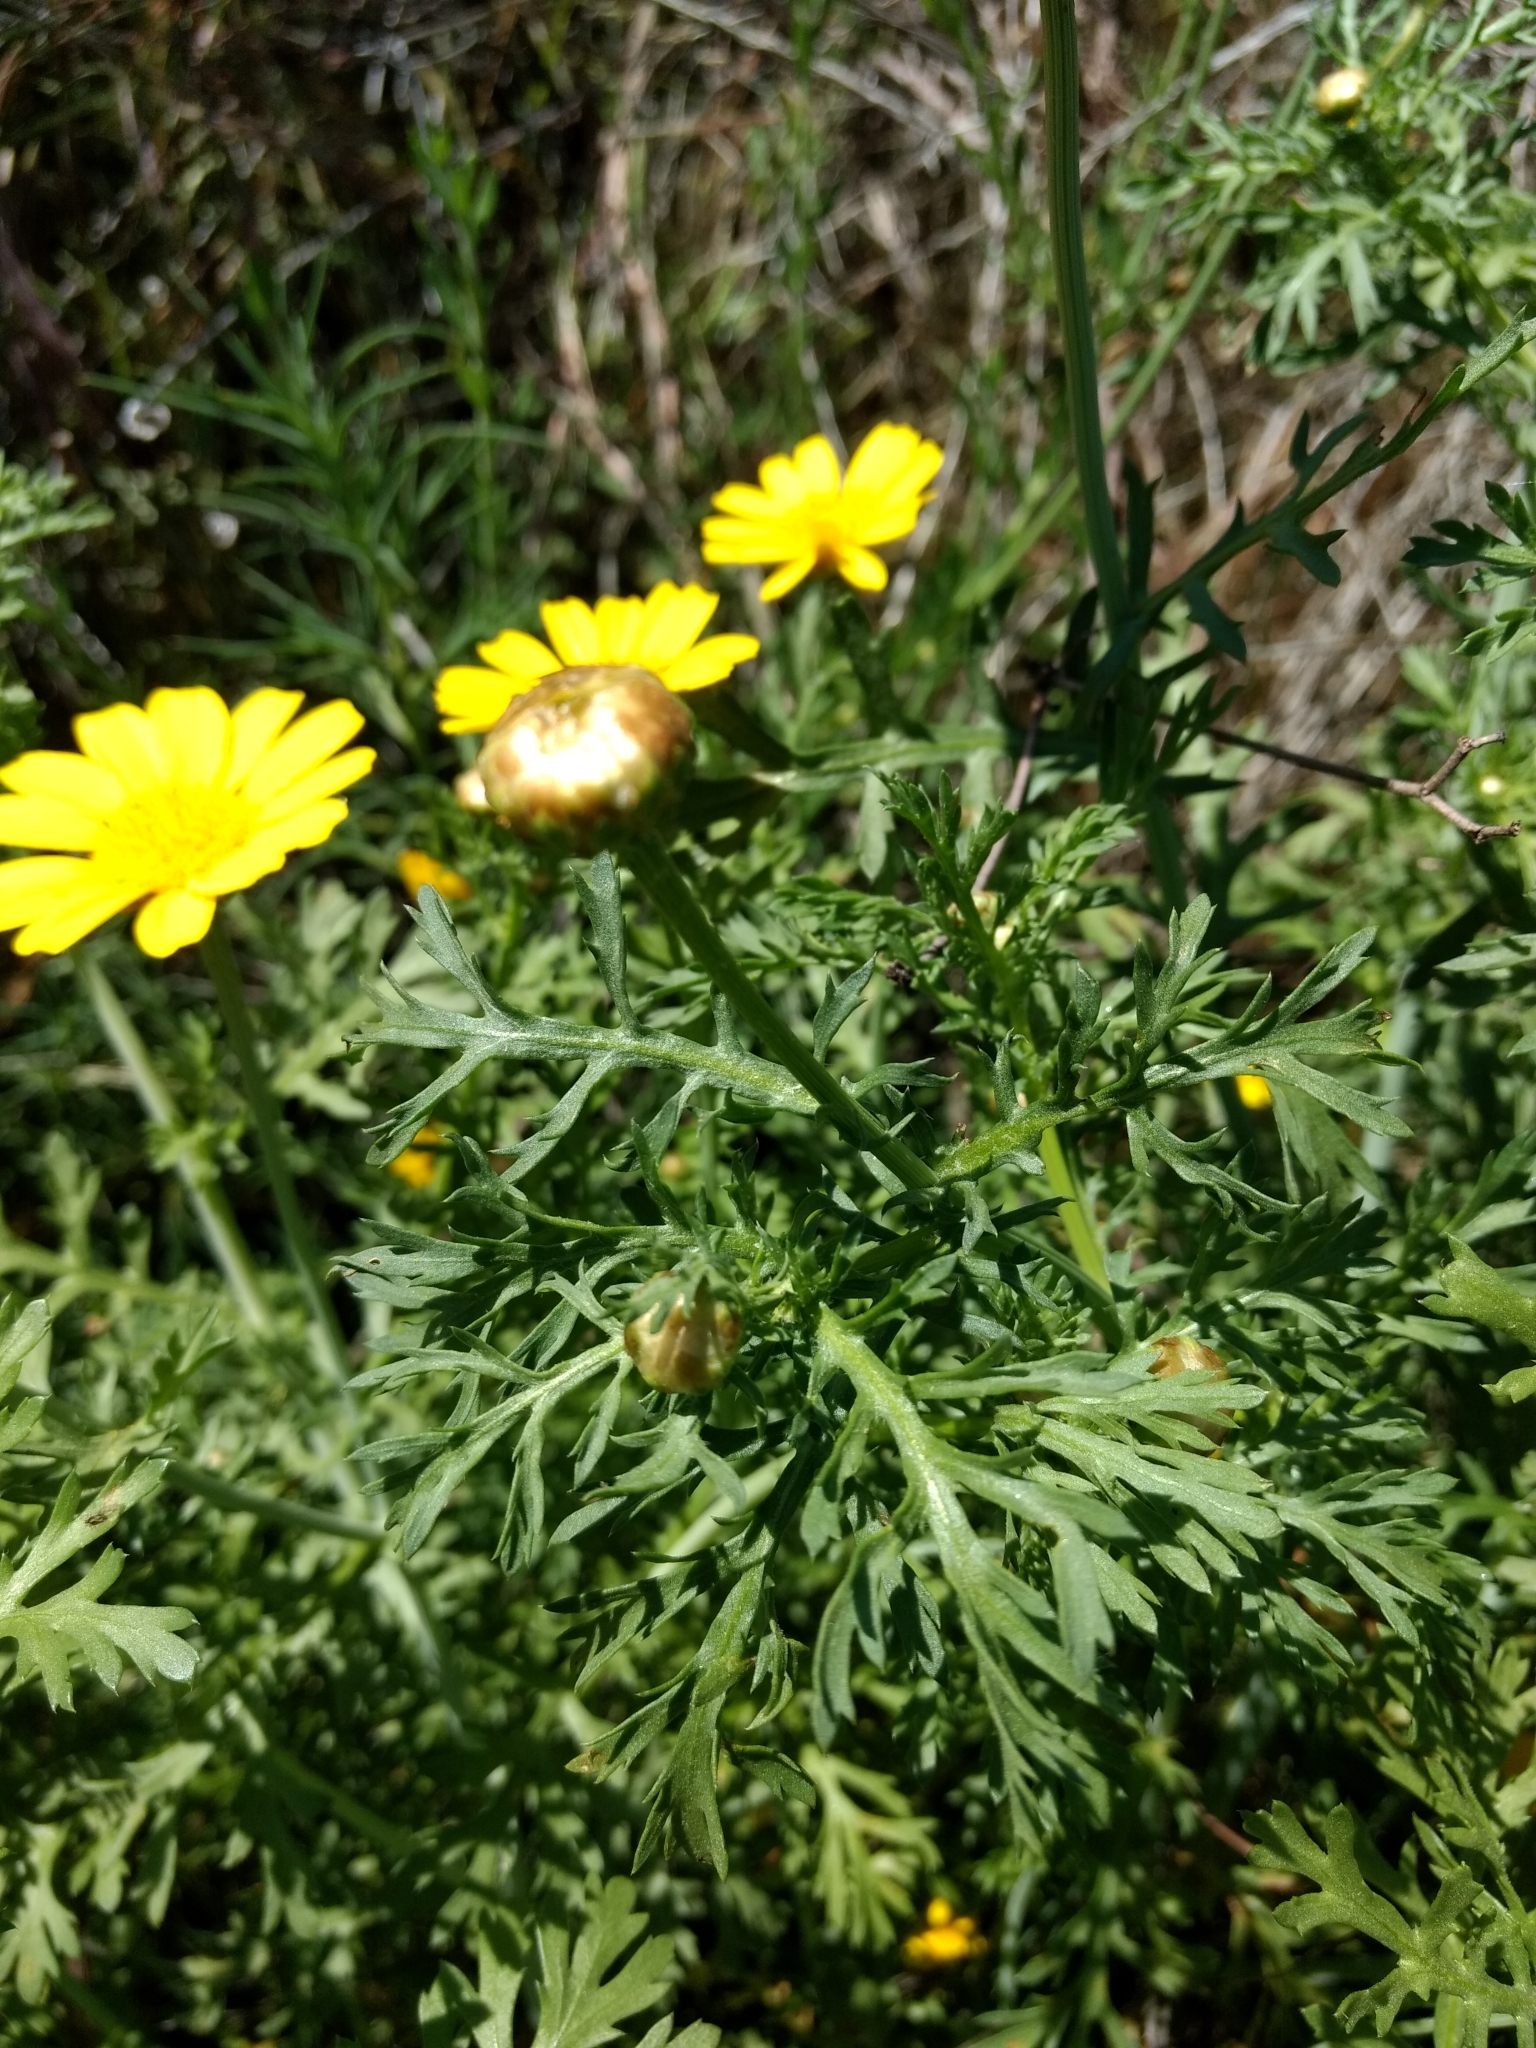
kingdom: Plantae
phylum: Tracheophyta
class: Magnoliopsida
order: Asterales
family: Asteraceae
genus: Glebionis
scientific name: Glebionis coronaria
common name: Crowndaisy
